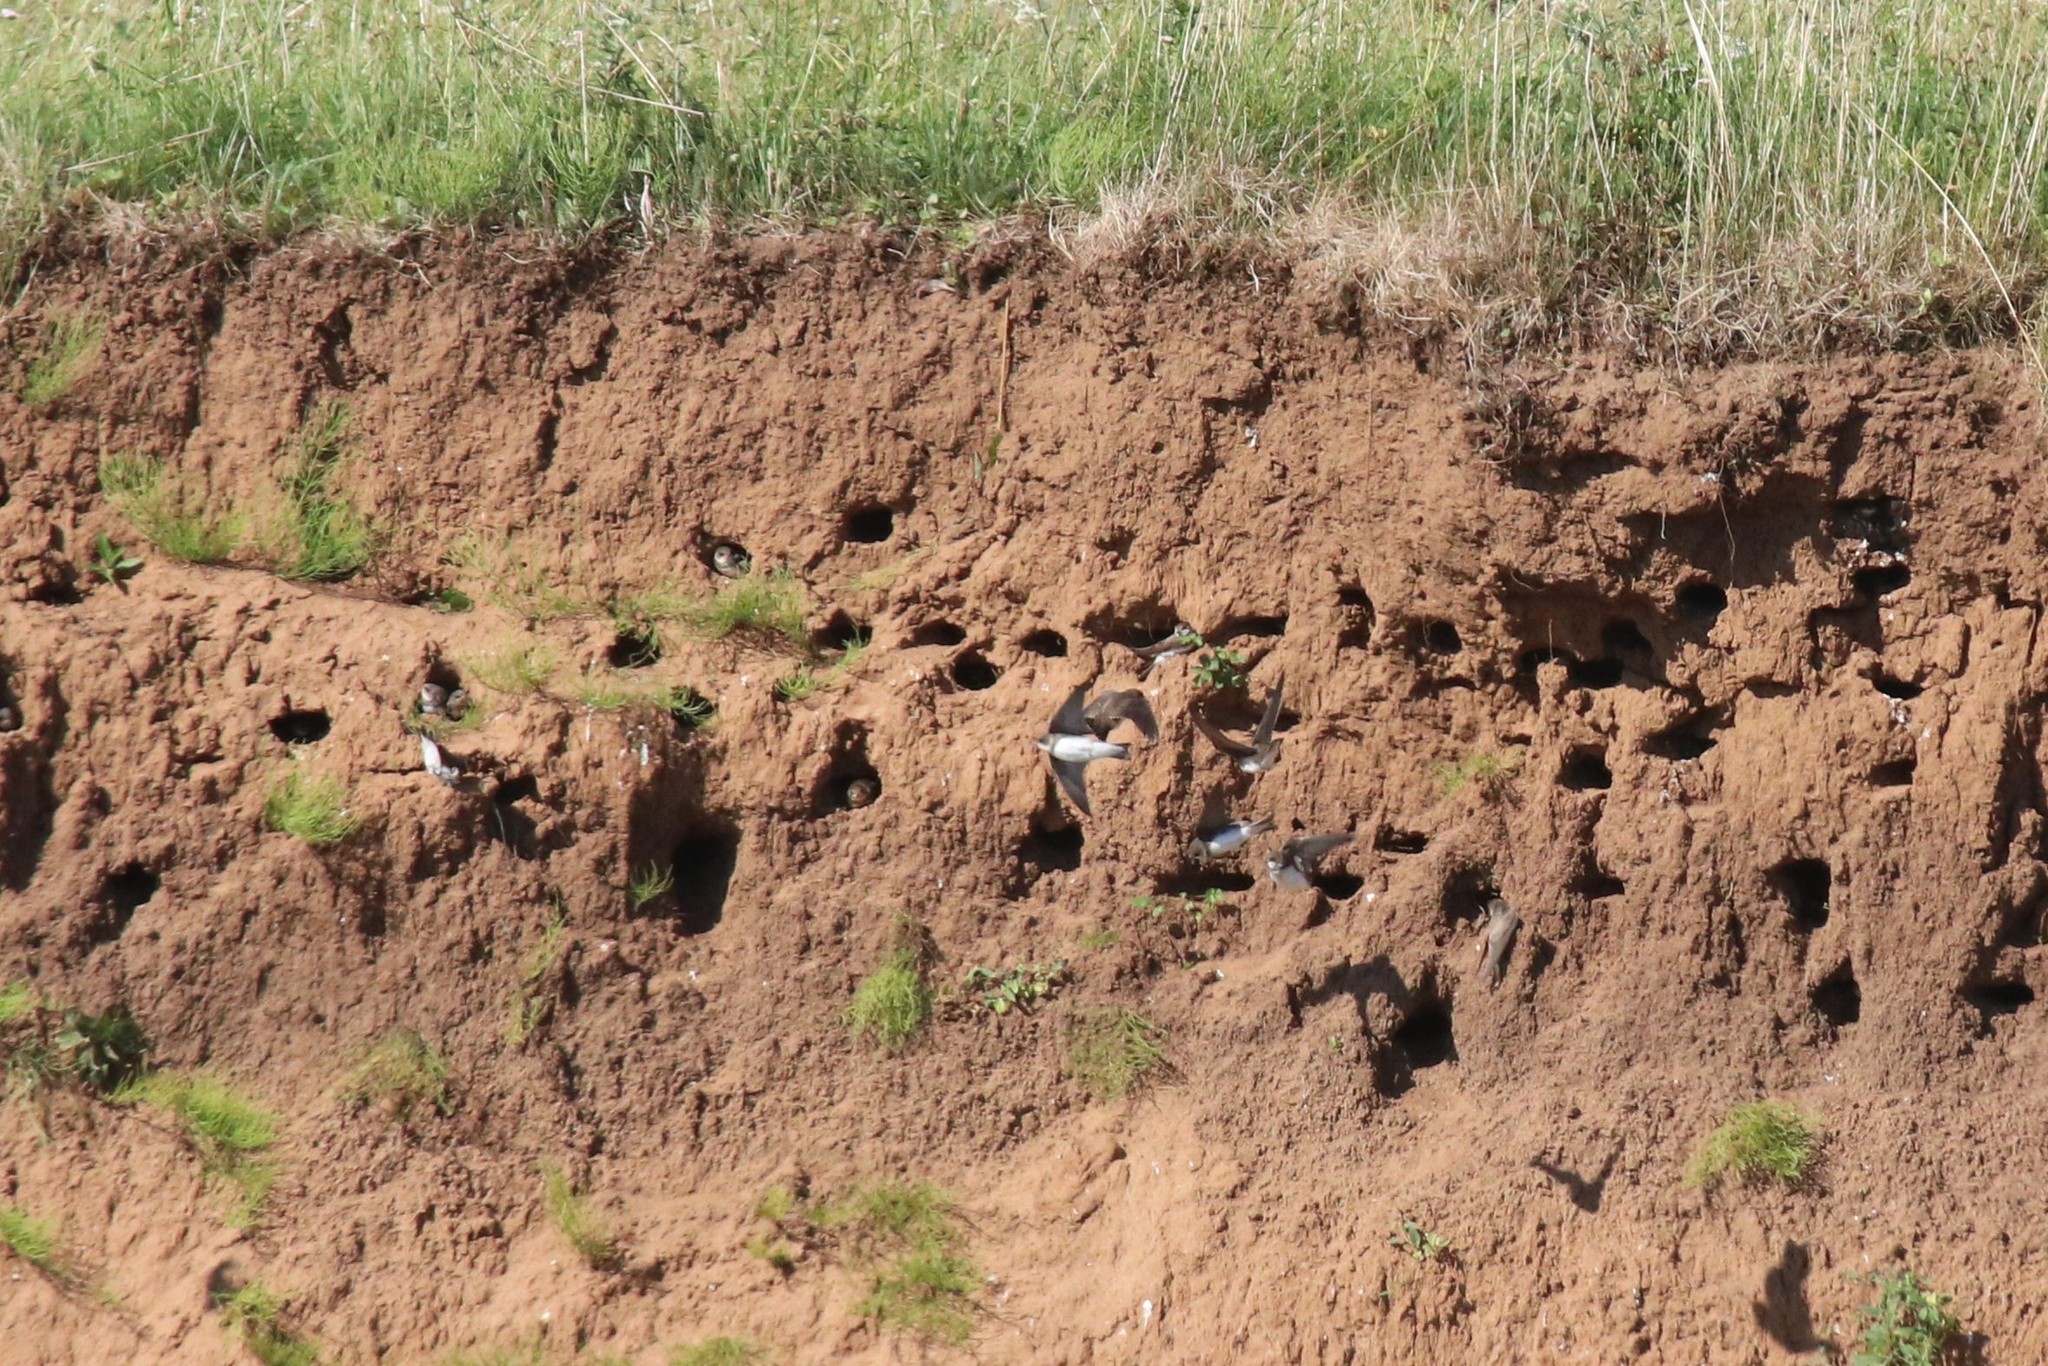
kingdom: Animalia
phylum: Chordata
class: Aves
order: Passeriformes
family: Hirundinidae
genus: Riparia
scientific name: Riparia riparia
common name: Sand martin
